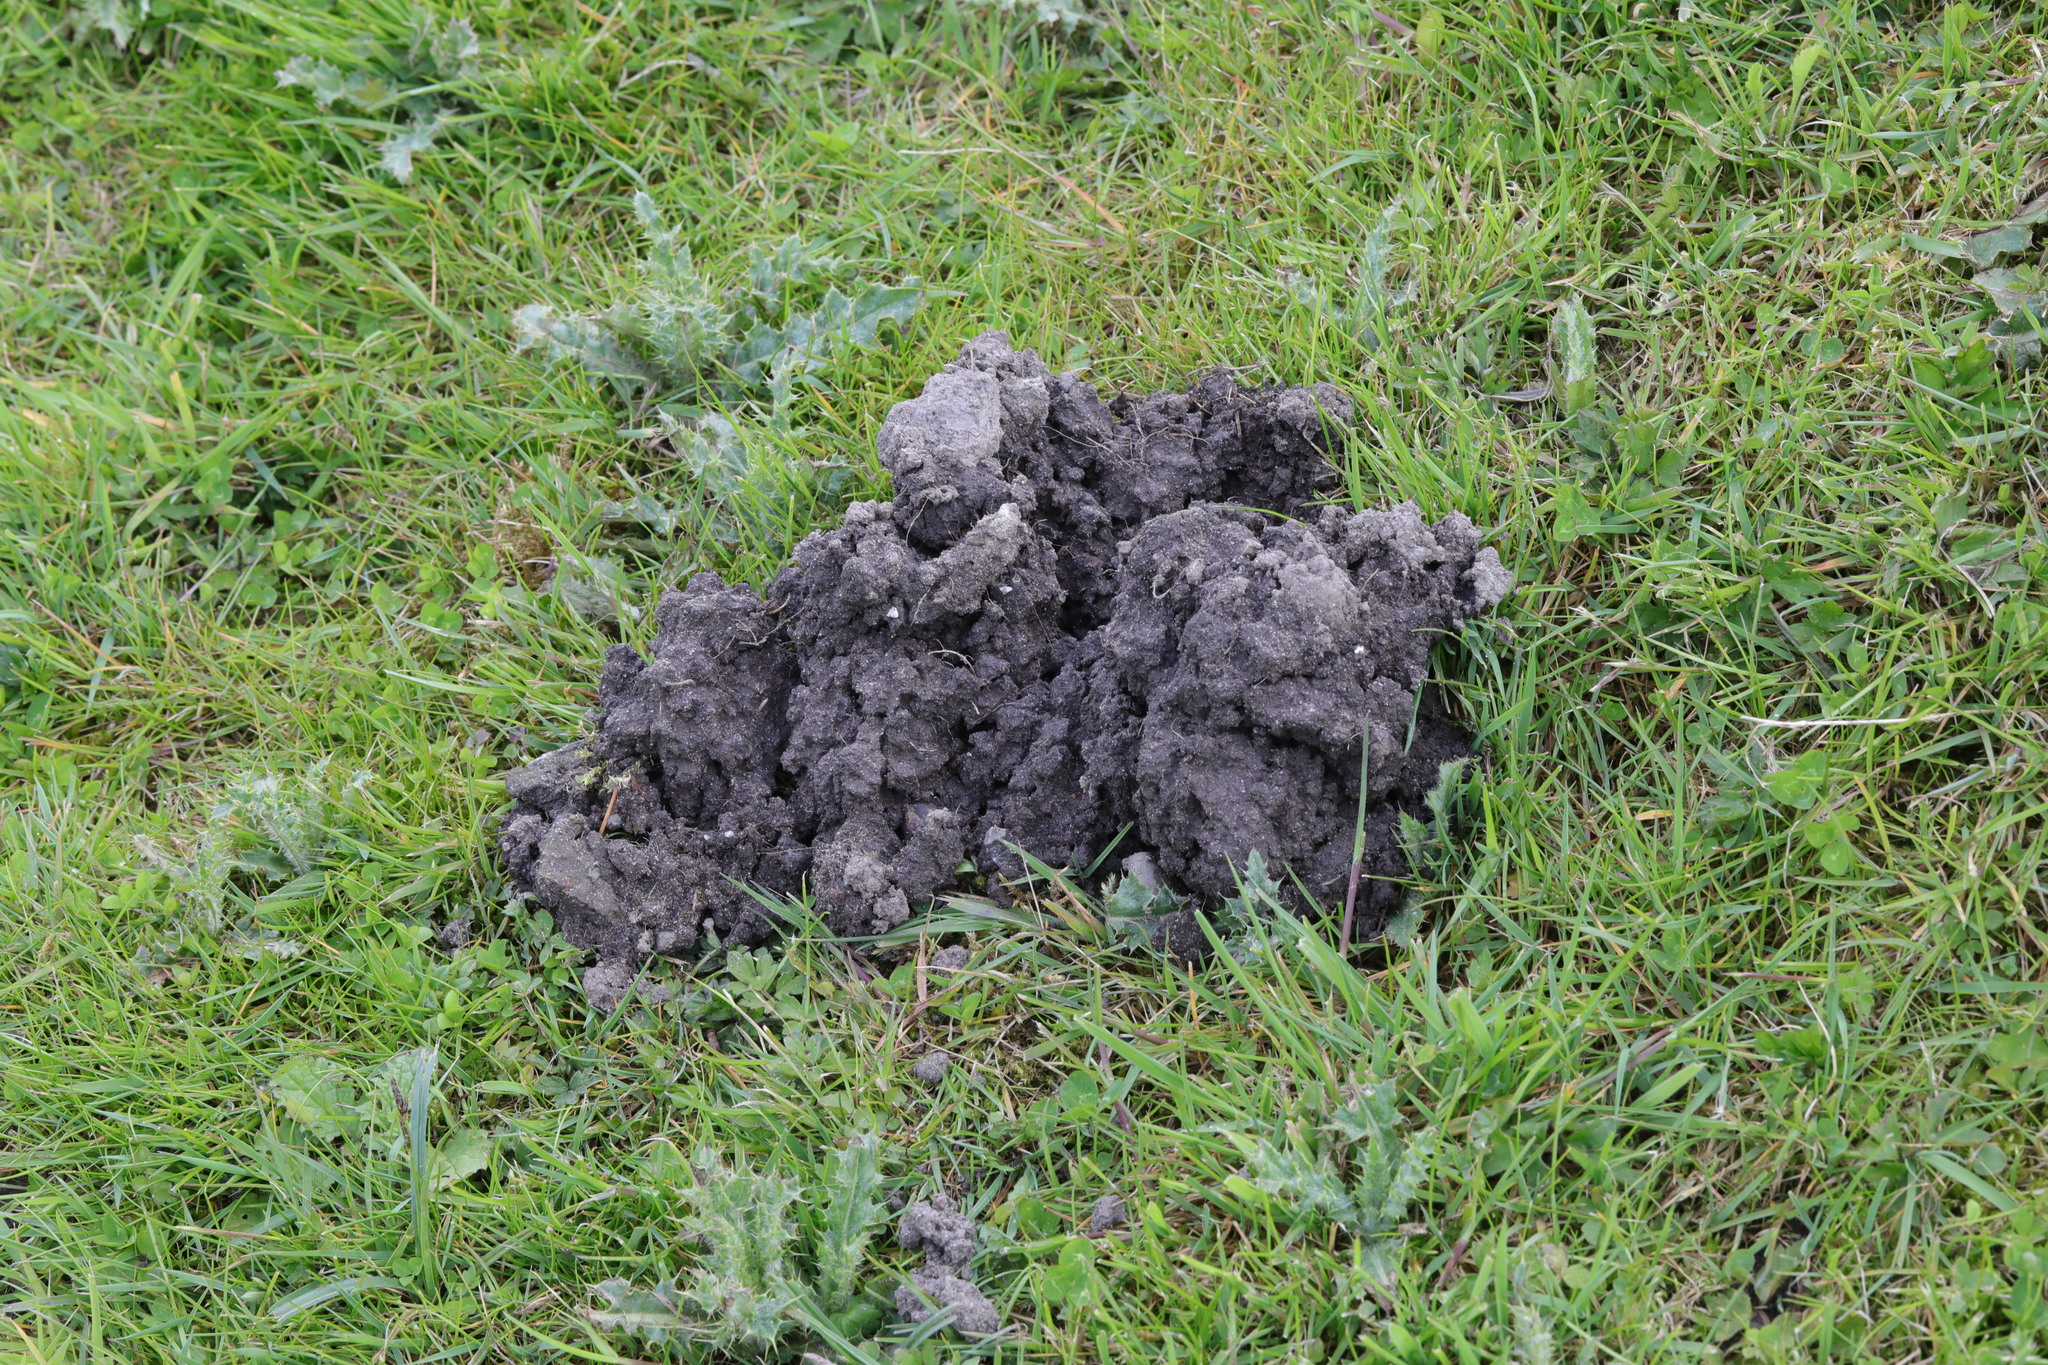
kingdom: Animalia
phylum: Chordata
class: Mammalia
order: Soricomorpha
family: Talpidae
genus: Talpa
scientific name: Talpa europaea
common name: European mole
